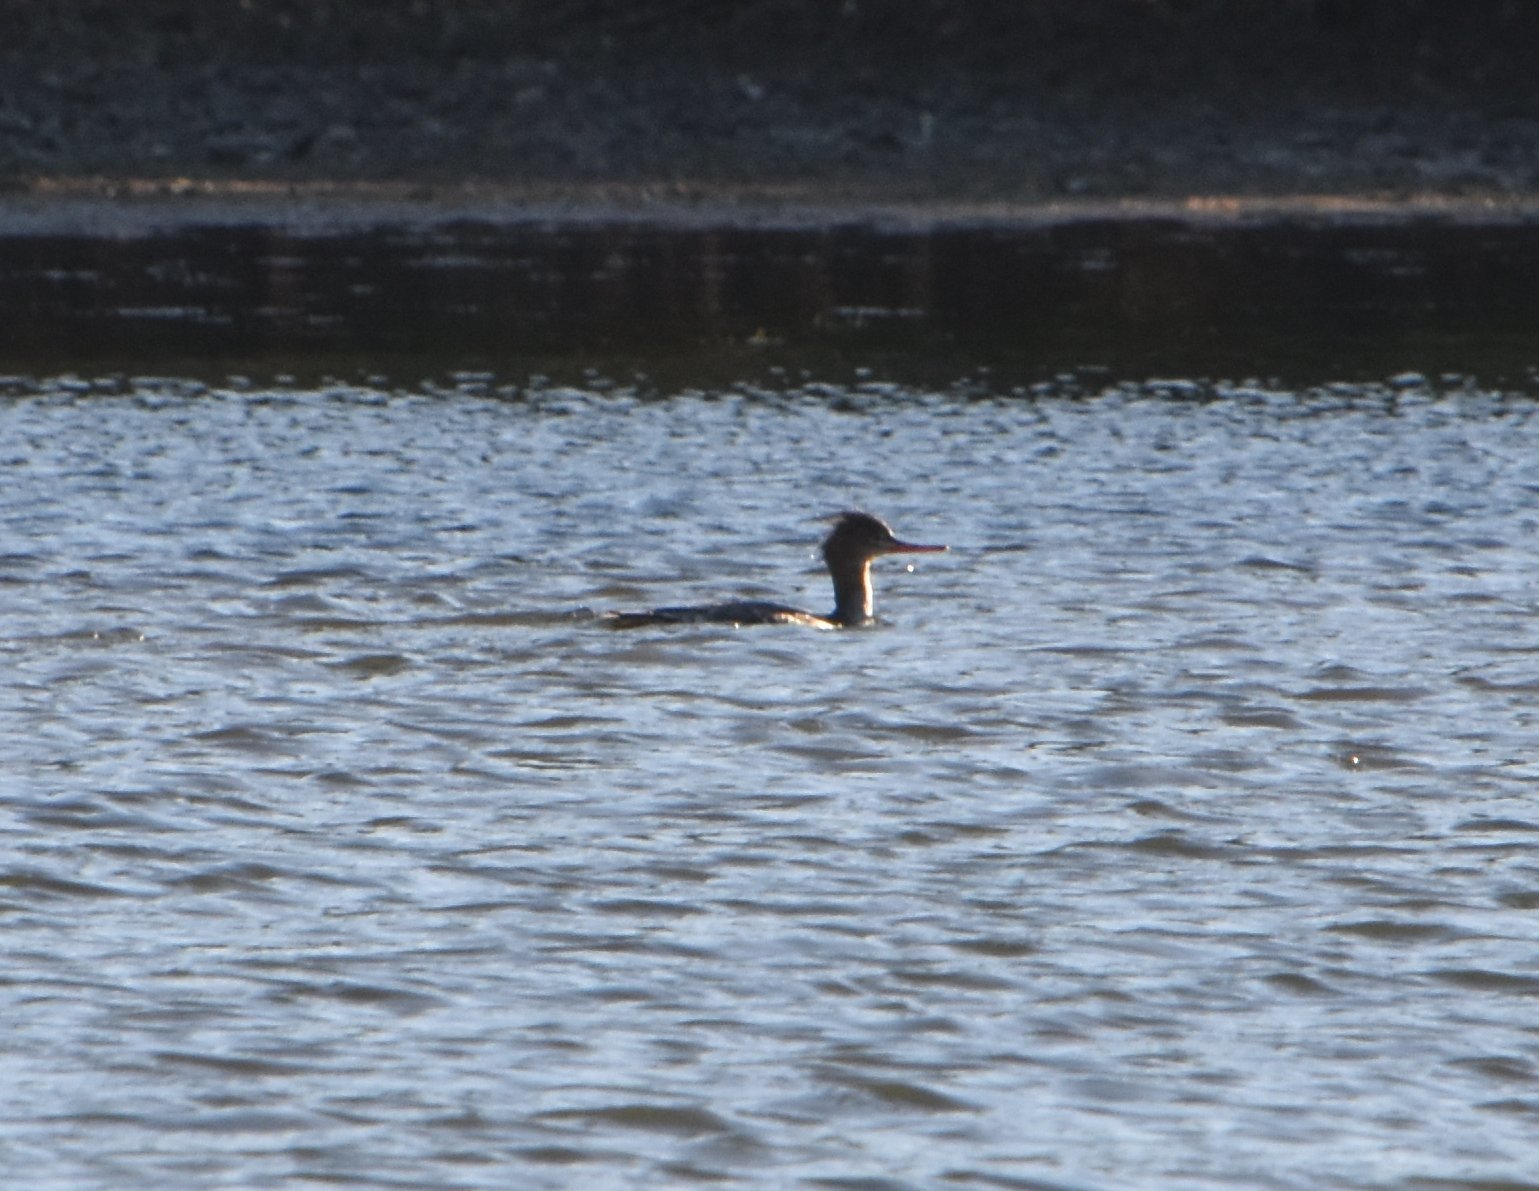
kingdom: Animalia
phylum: Chordata
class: Aves
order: Anseriformes
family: Anatidae
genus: Mergus
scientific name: Mergus serrator
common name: Red-breasted merganser
